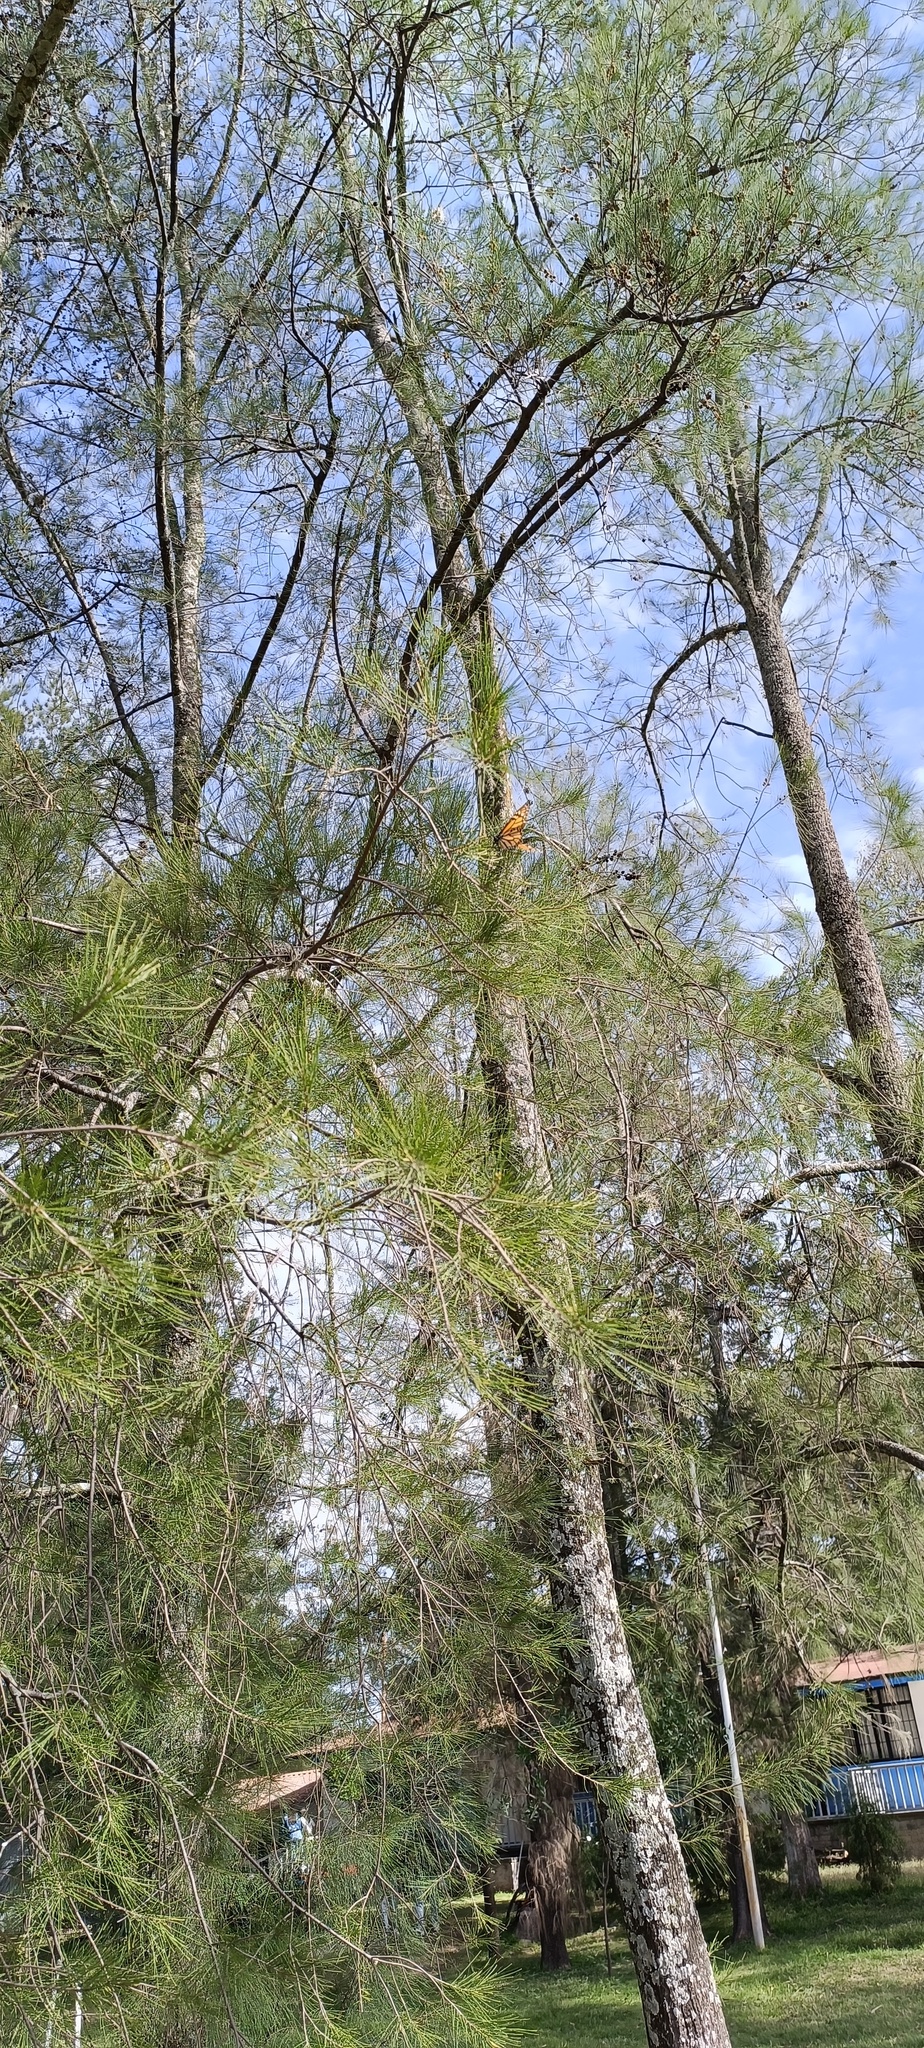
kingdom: Animalia
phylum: Arthropoda
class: Insecta
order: Lepidoptera
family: Nymphalidae
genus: Danaus
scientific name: Danaus plexippus
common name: Monarch
